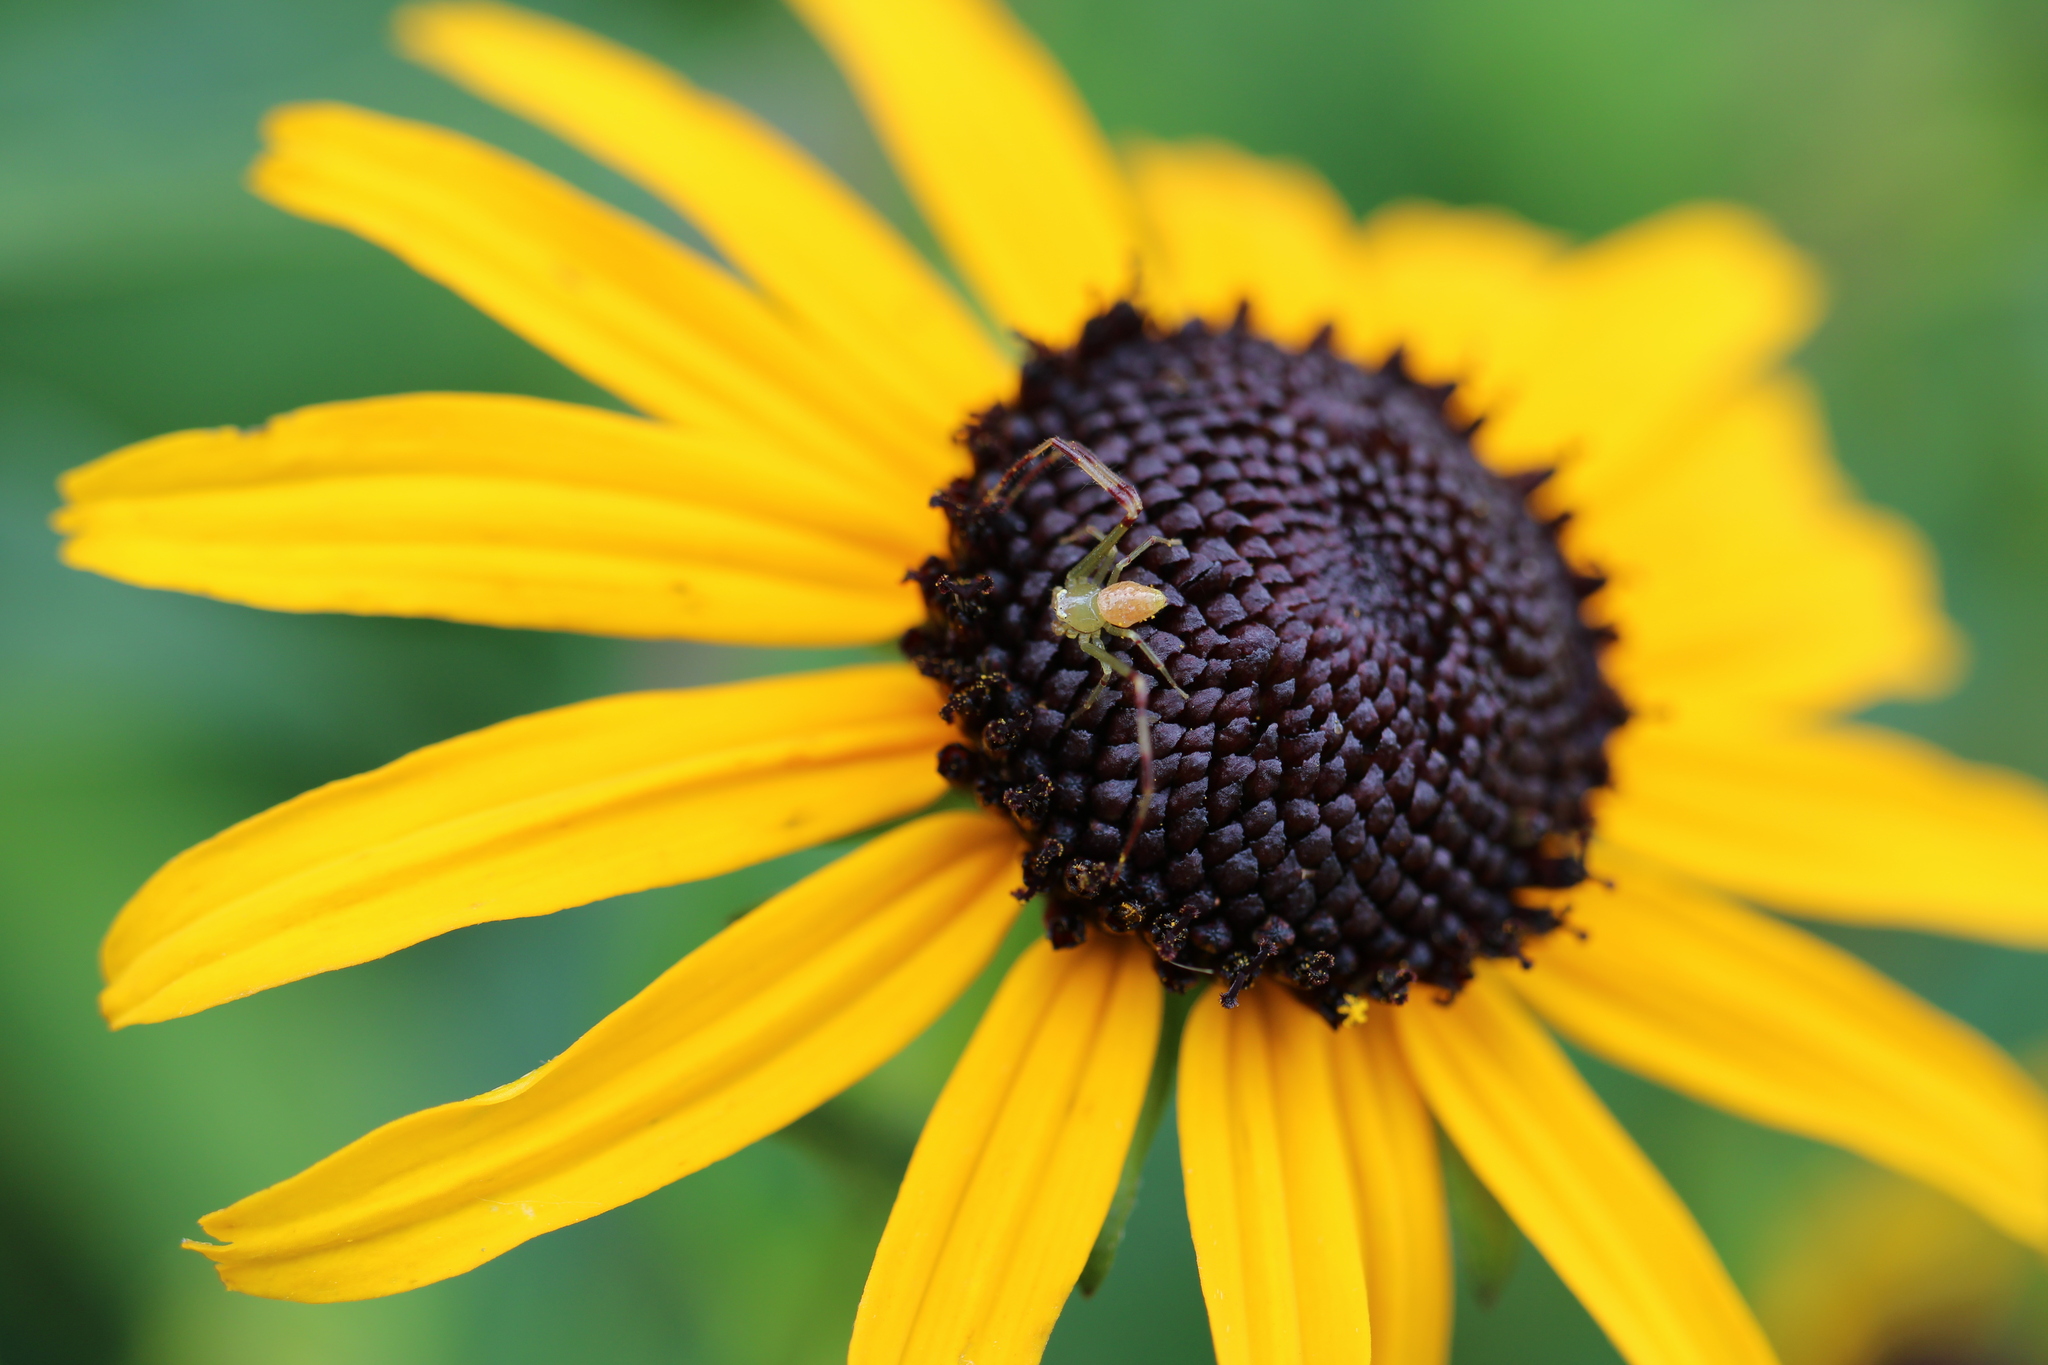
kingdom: Animalia
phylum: Arthropoda
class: Arachnida
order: Araneae
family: Thomisidae
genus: Misumessus
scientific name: Misumessus oblongus
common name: American green crab spider
